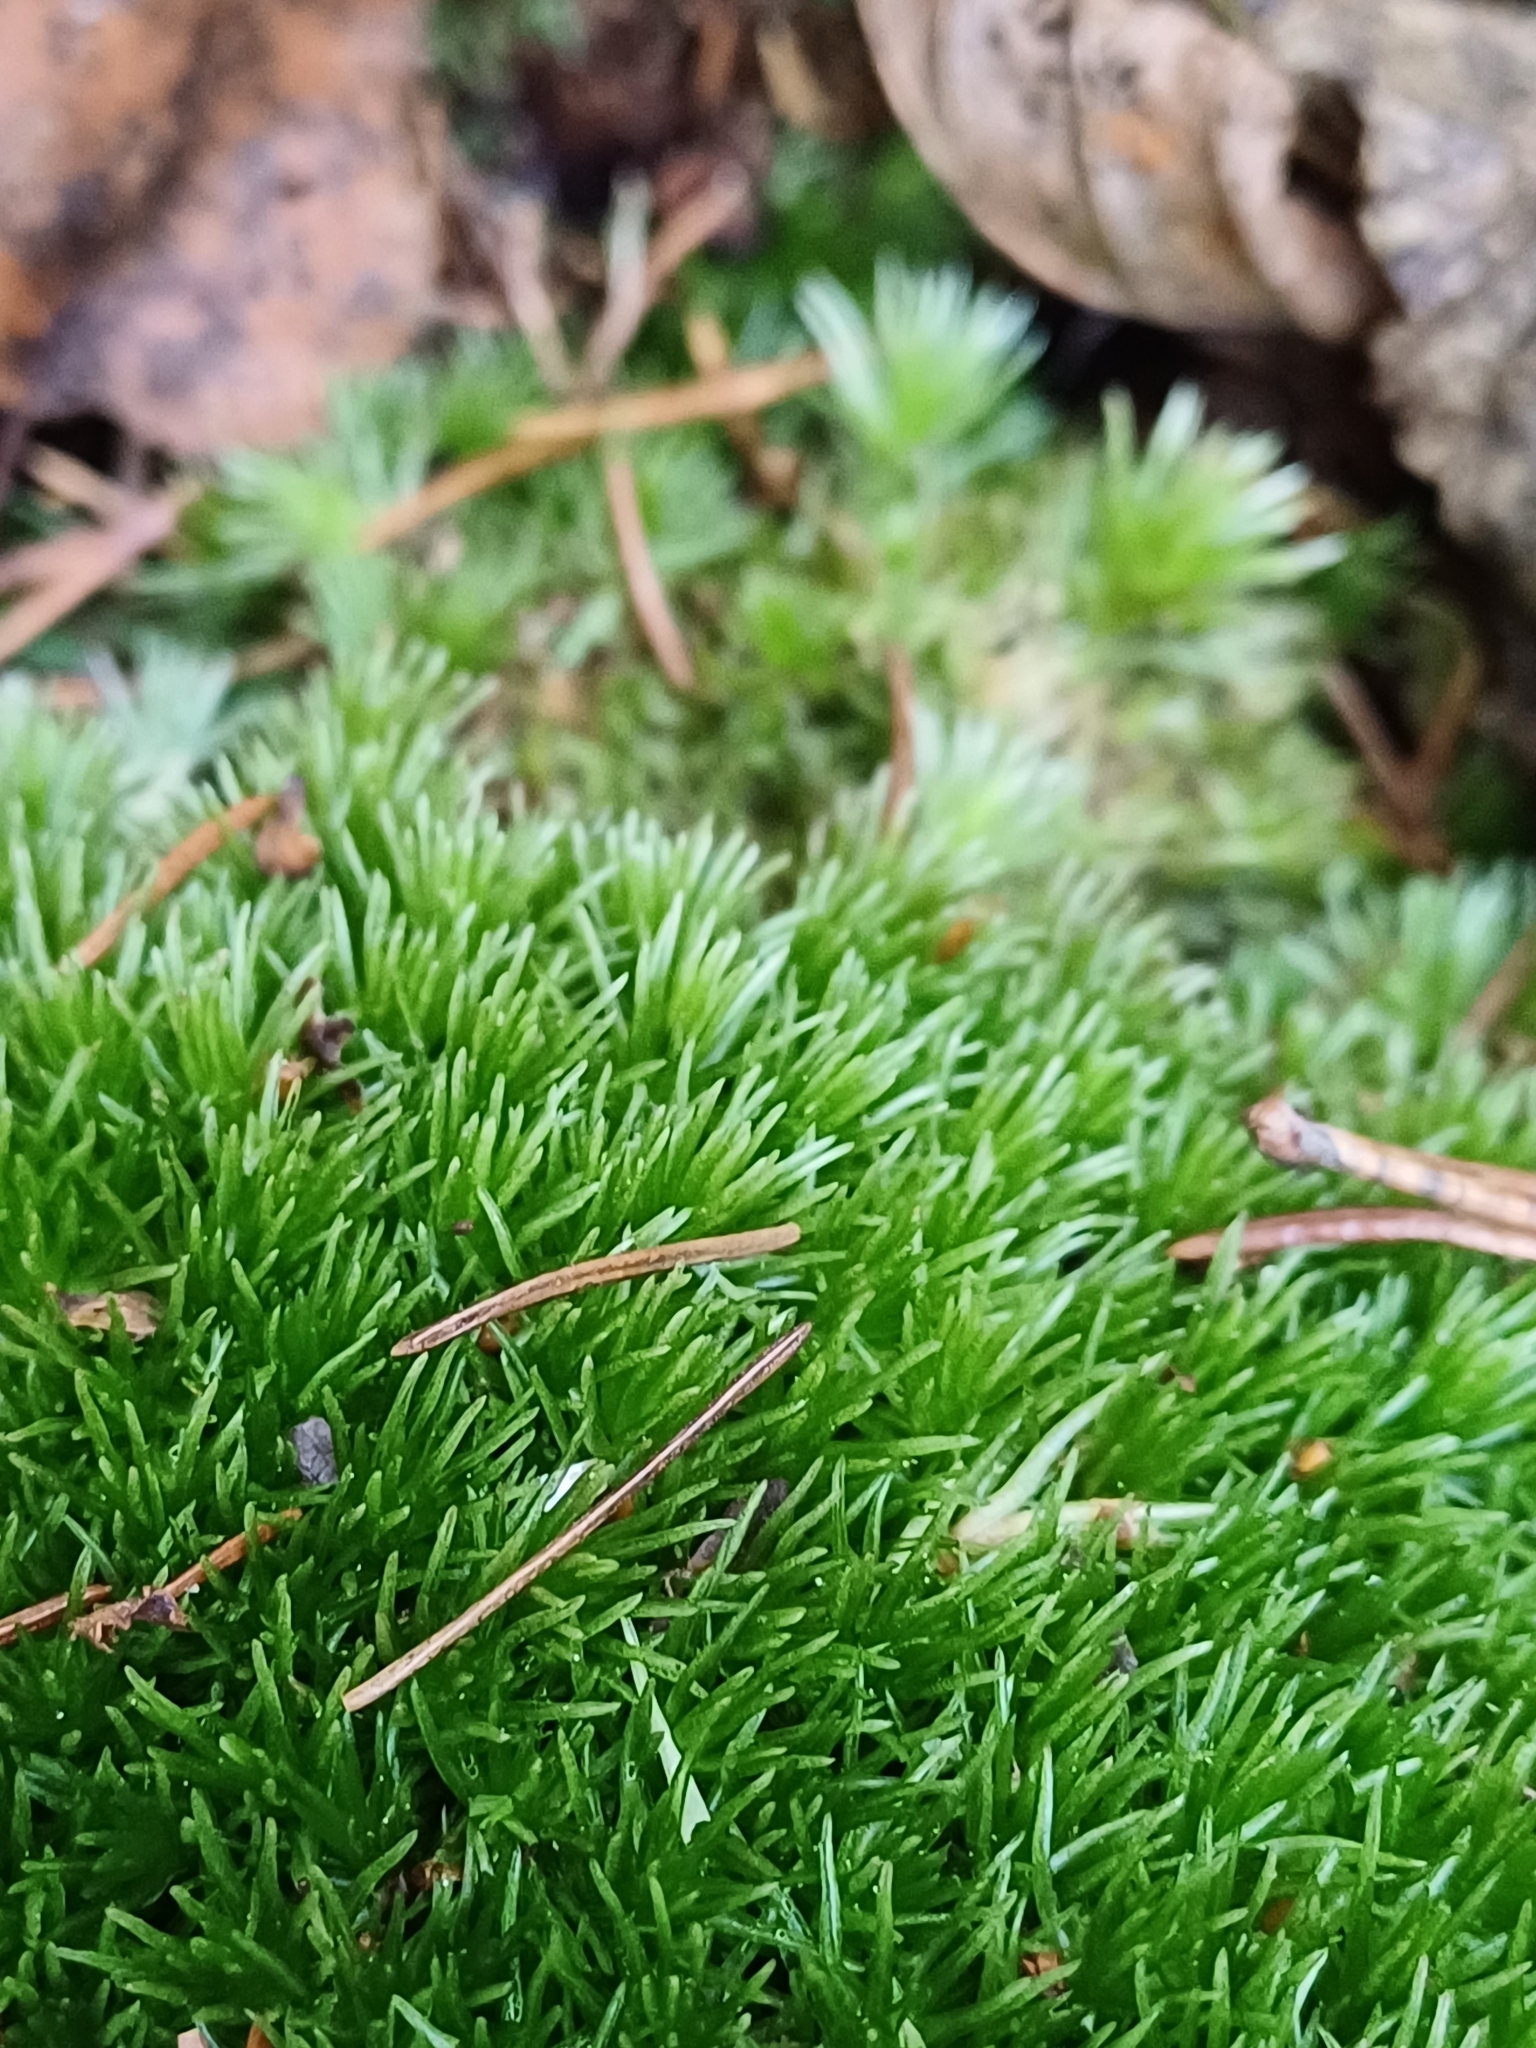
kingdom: Plantae
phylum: Bryophyta
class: Bryopsida
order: Dicranales
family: Leucobryaceae
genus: Leucobryum
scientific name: Leucobryum glaucum
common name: Large white-moss
